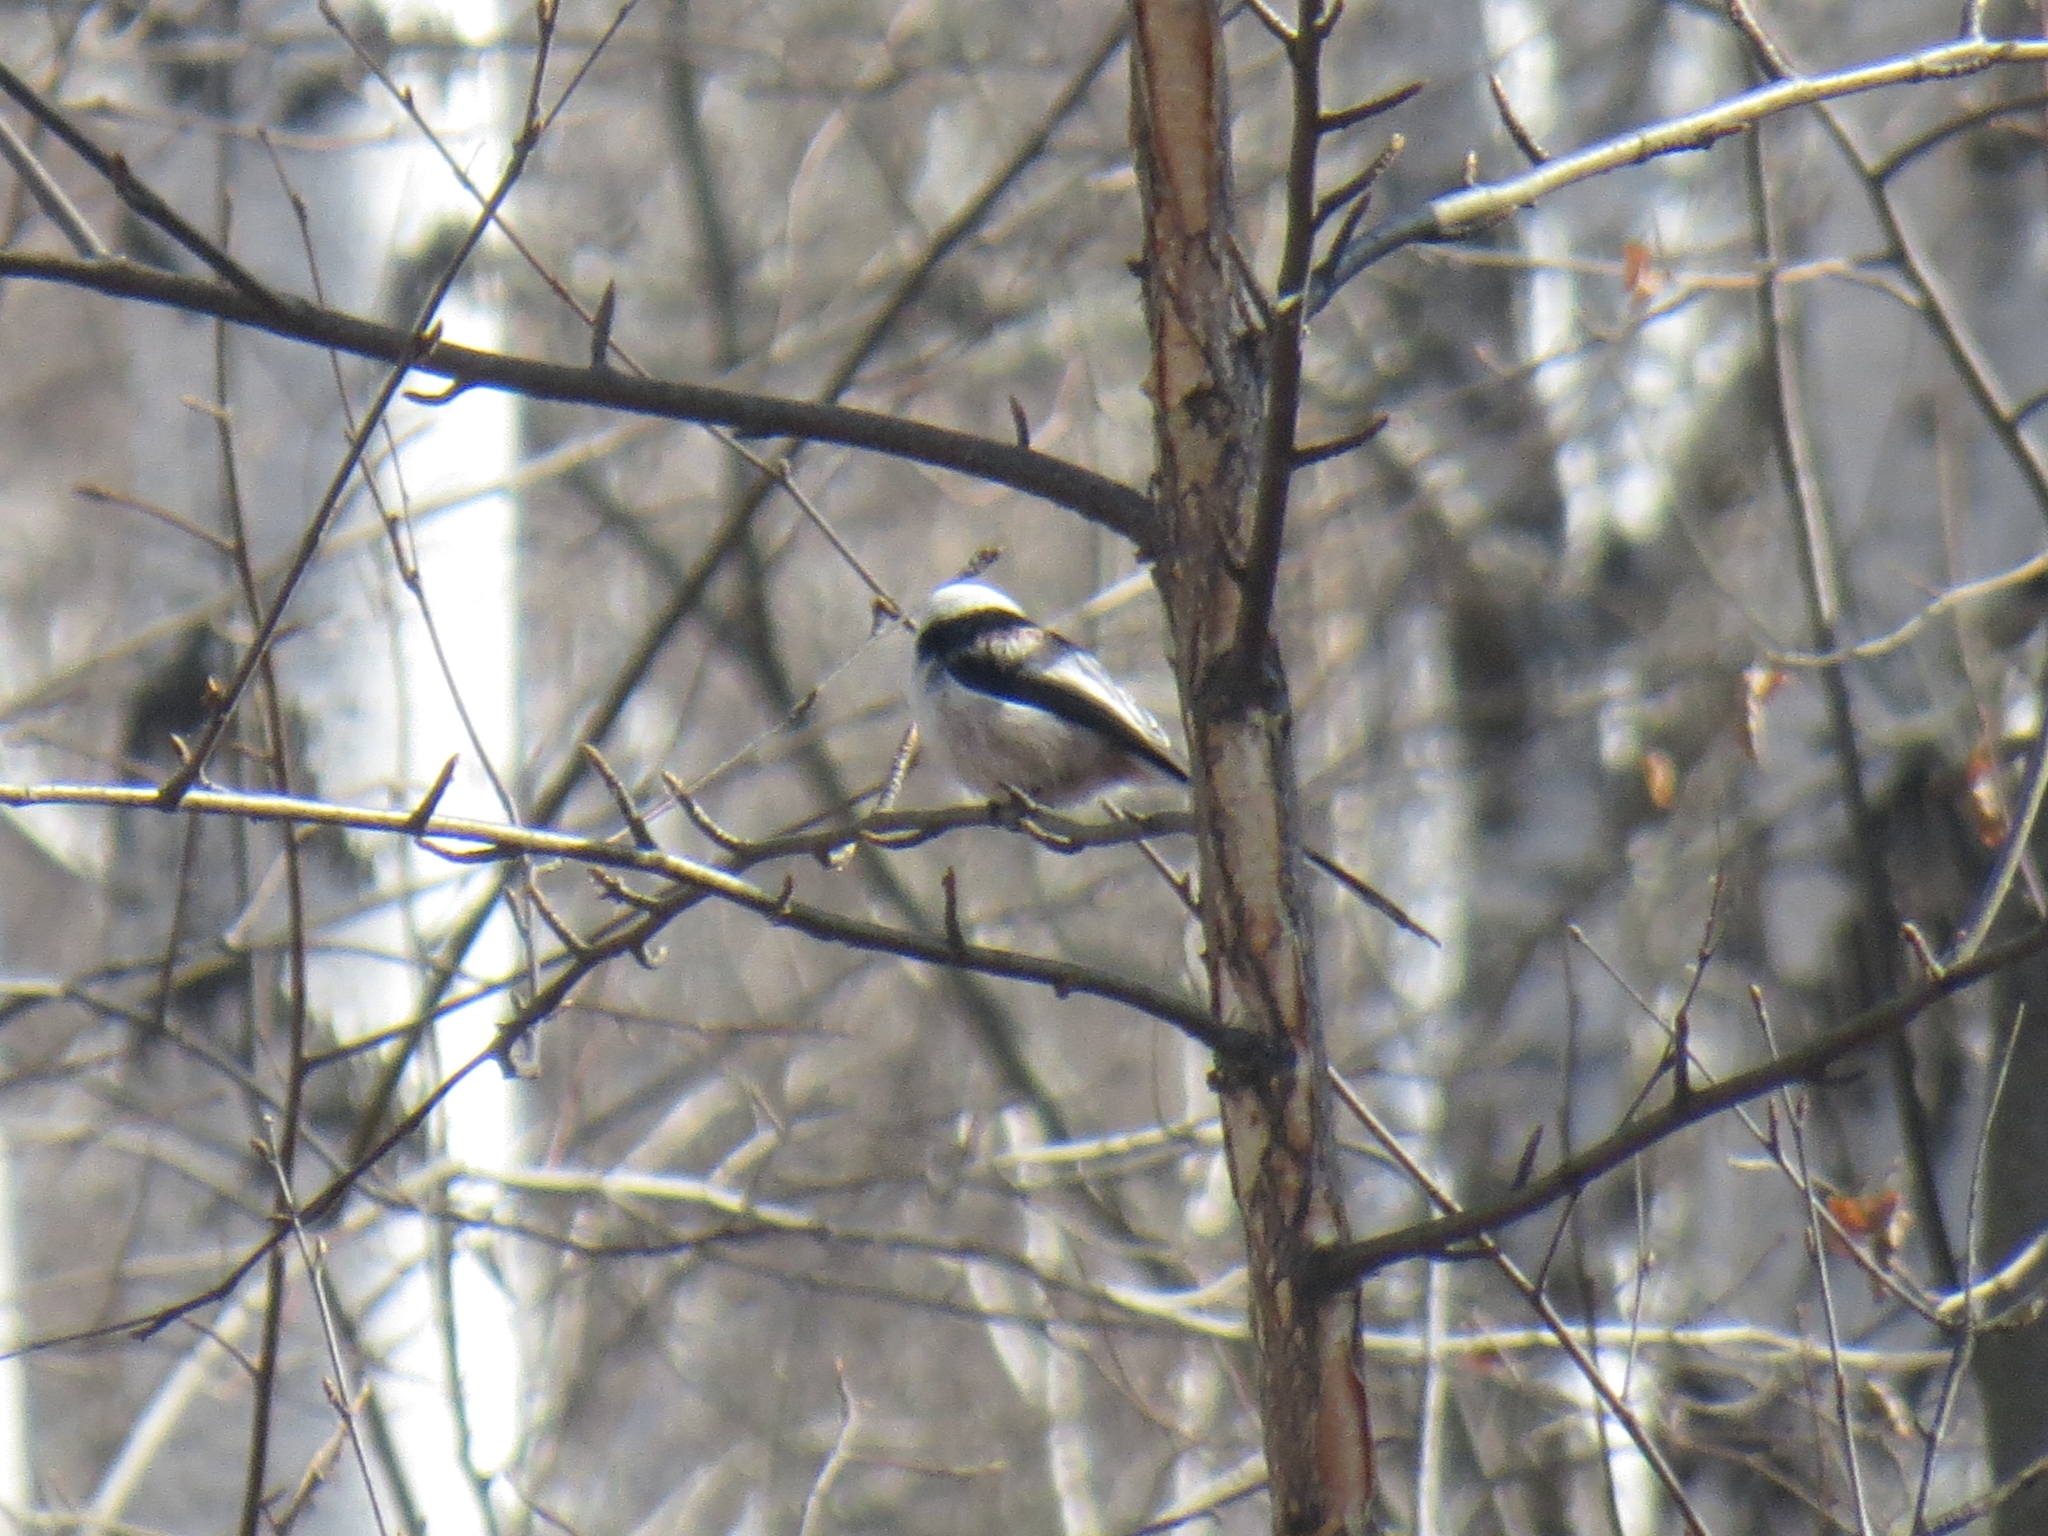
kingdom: Animalia
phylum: Chordata
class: Aves
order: Passeriformes
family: Aegithalidae
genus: Aegithalos
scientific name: Aegithalos caudatus
